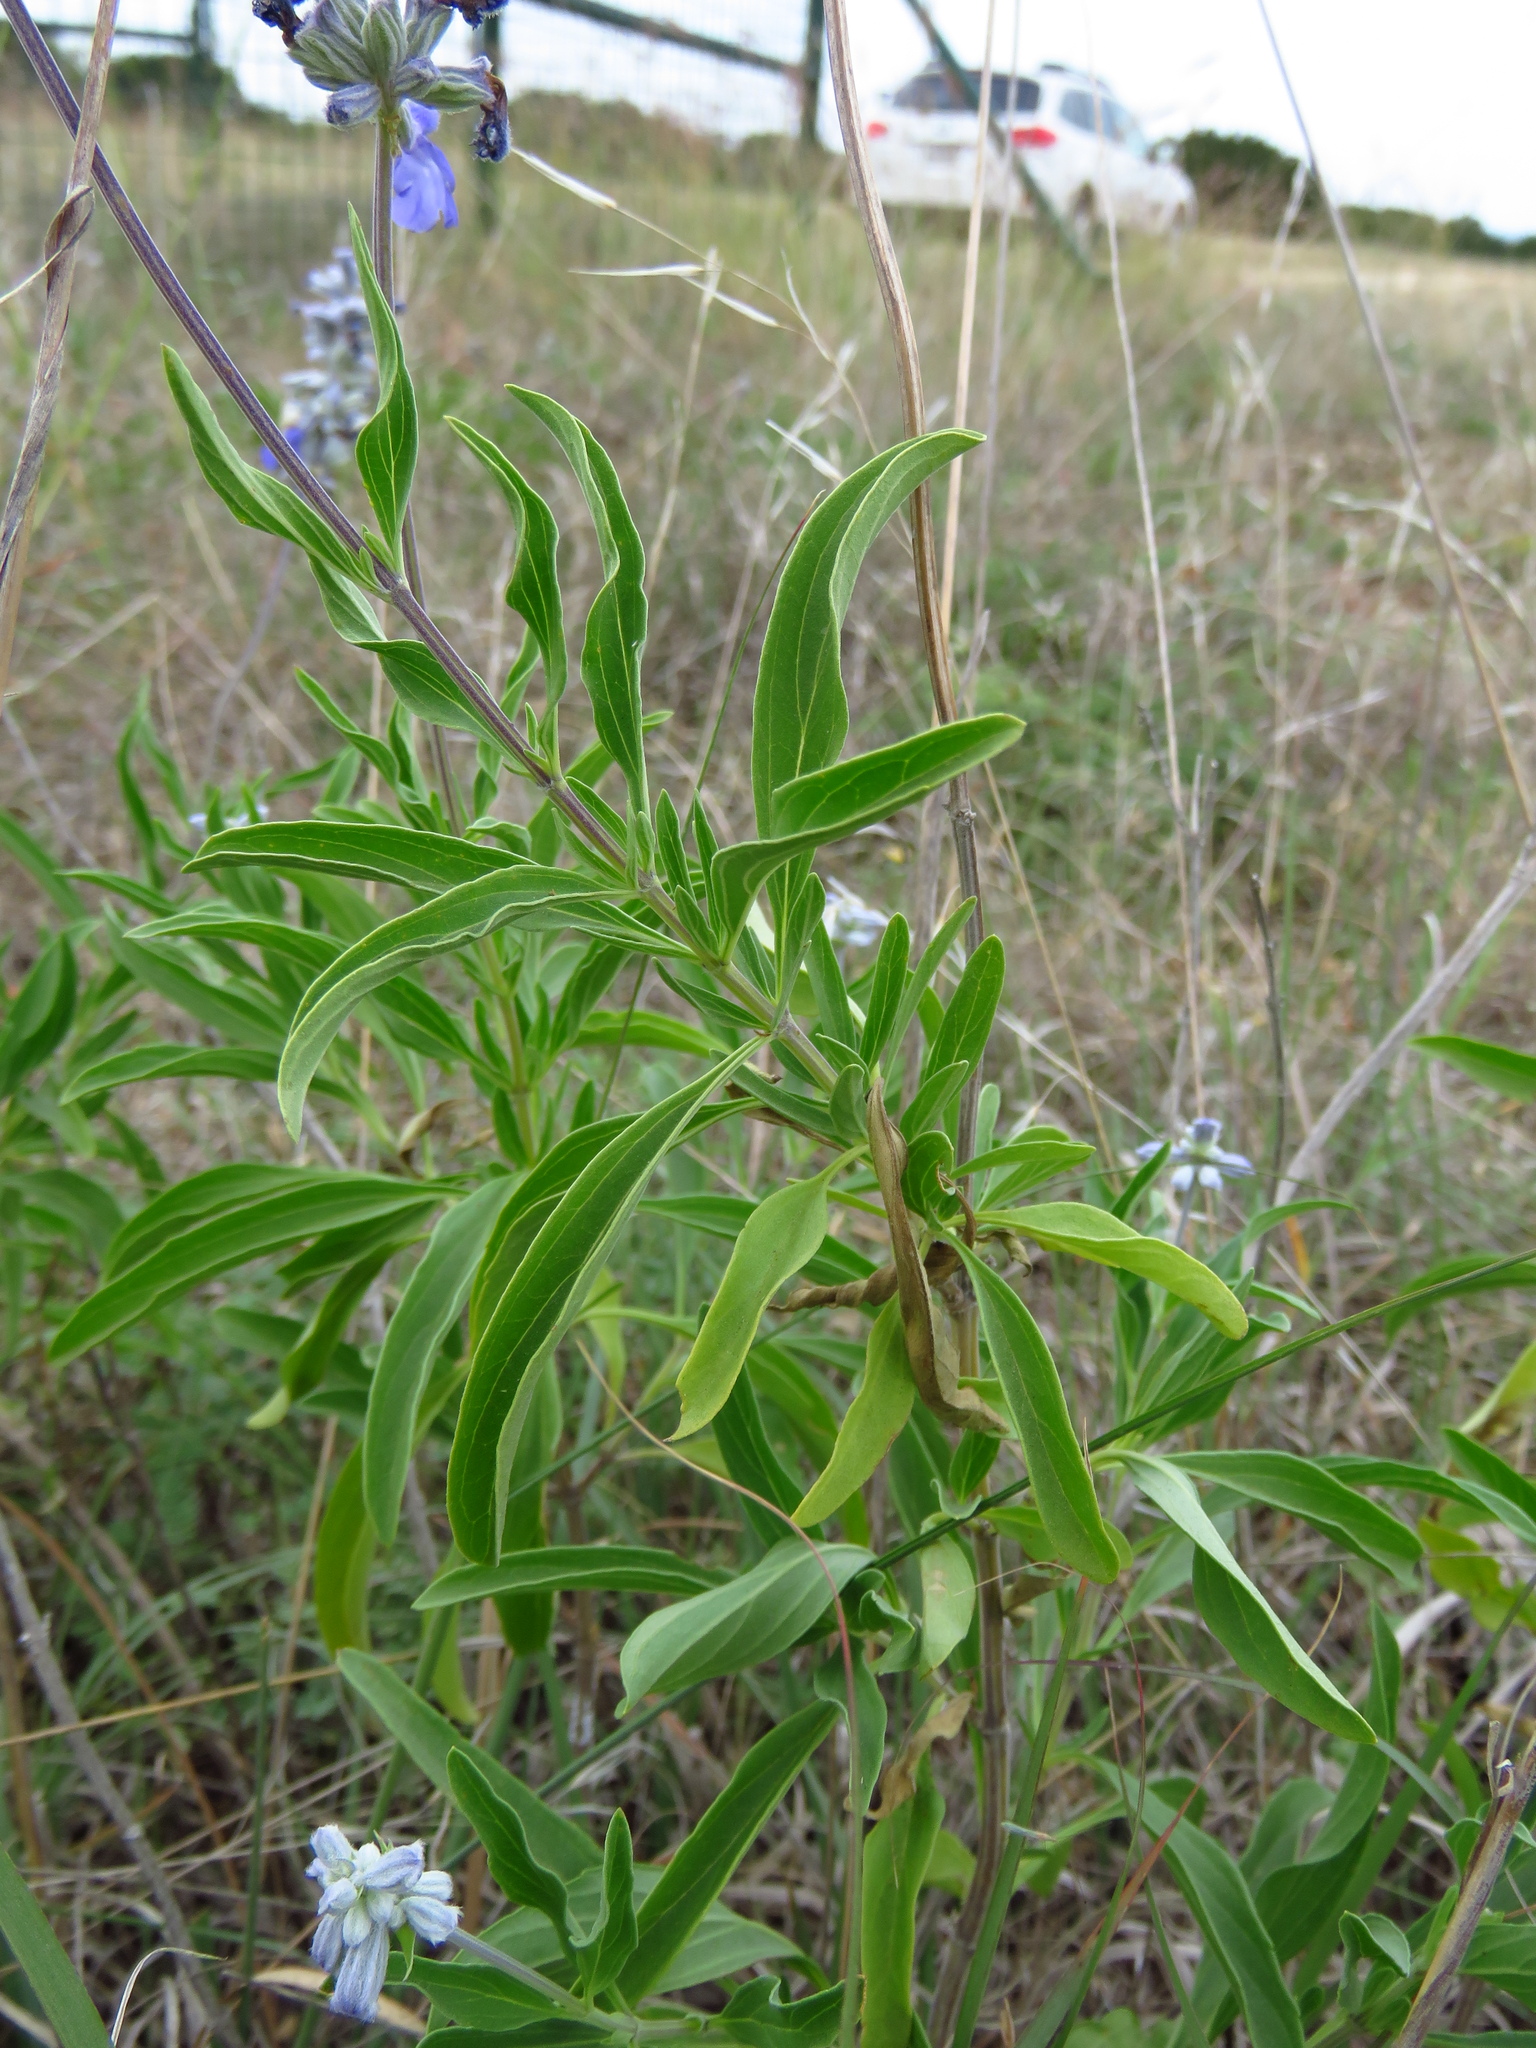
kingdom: Plantae
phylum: Tracheophyta
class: Magnoliopsida
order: Lamiales
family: Lamiaceae
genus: Salvia
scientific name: Salvia farinacea
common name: Mealy sage
